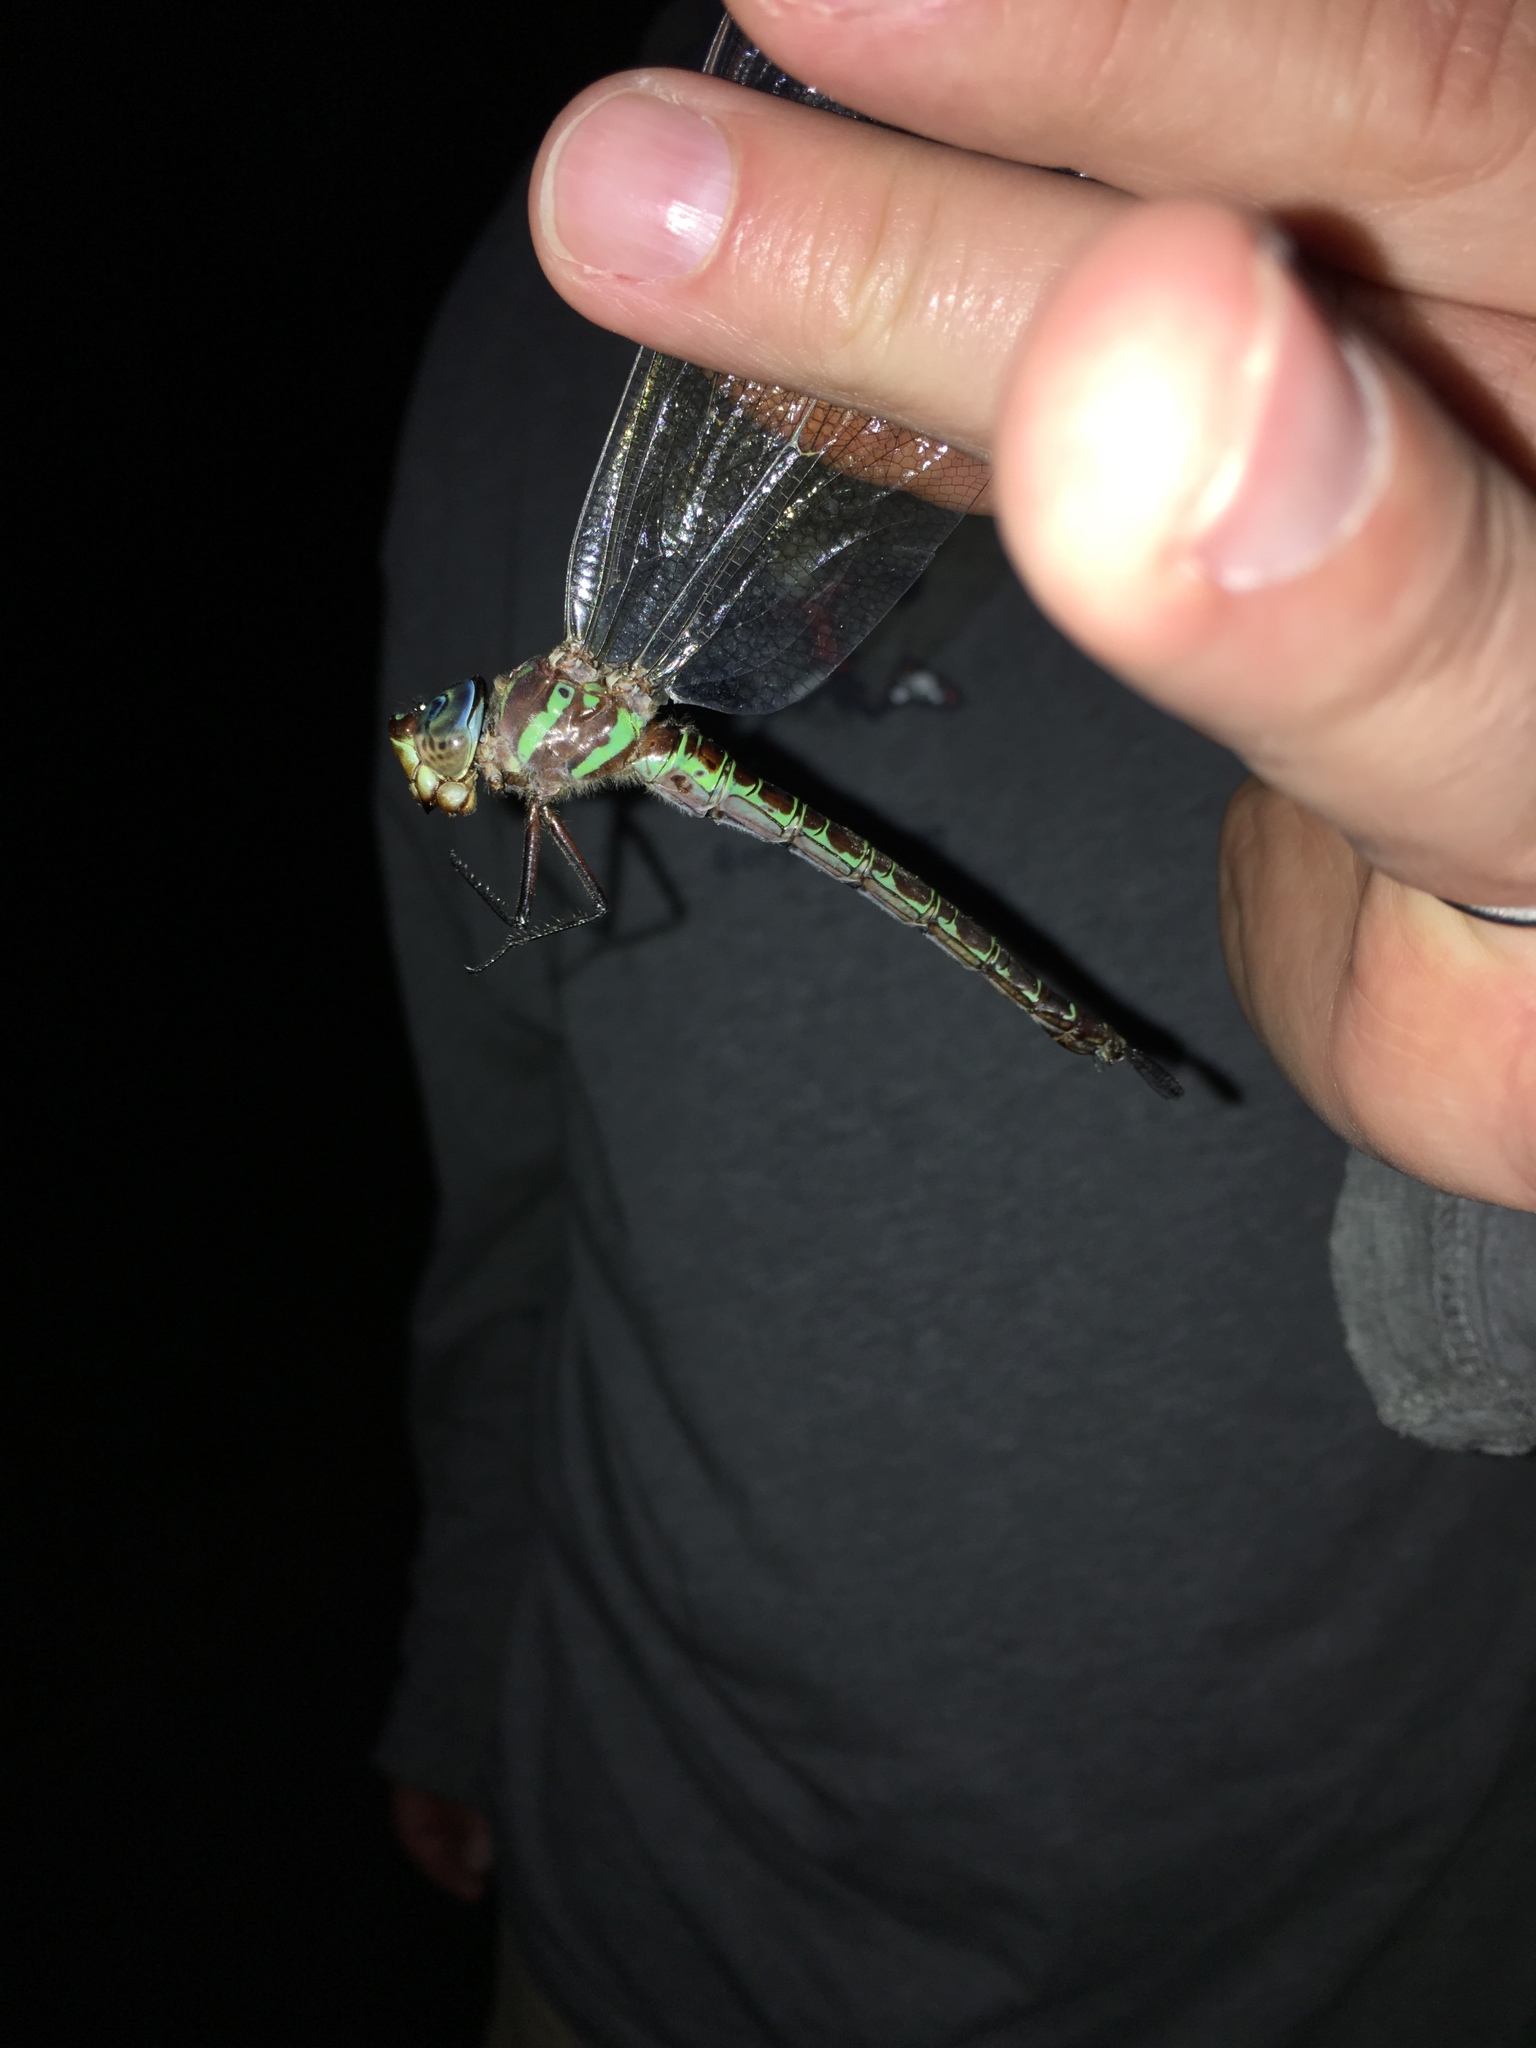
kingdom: Animalia
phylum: Arthropoda
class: Insecta
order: Odonata
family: Aeshnidae
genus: Epiaeschna
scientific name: Epiaeschna heros
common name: Swamp darner
